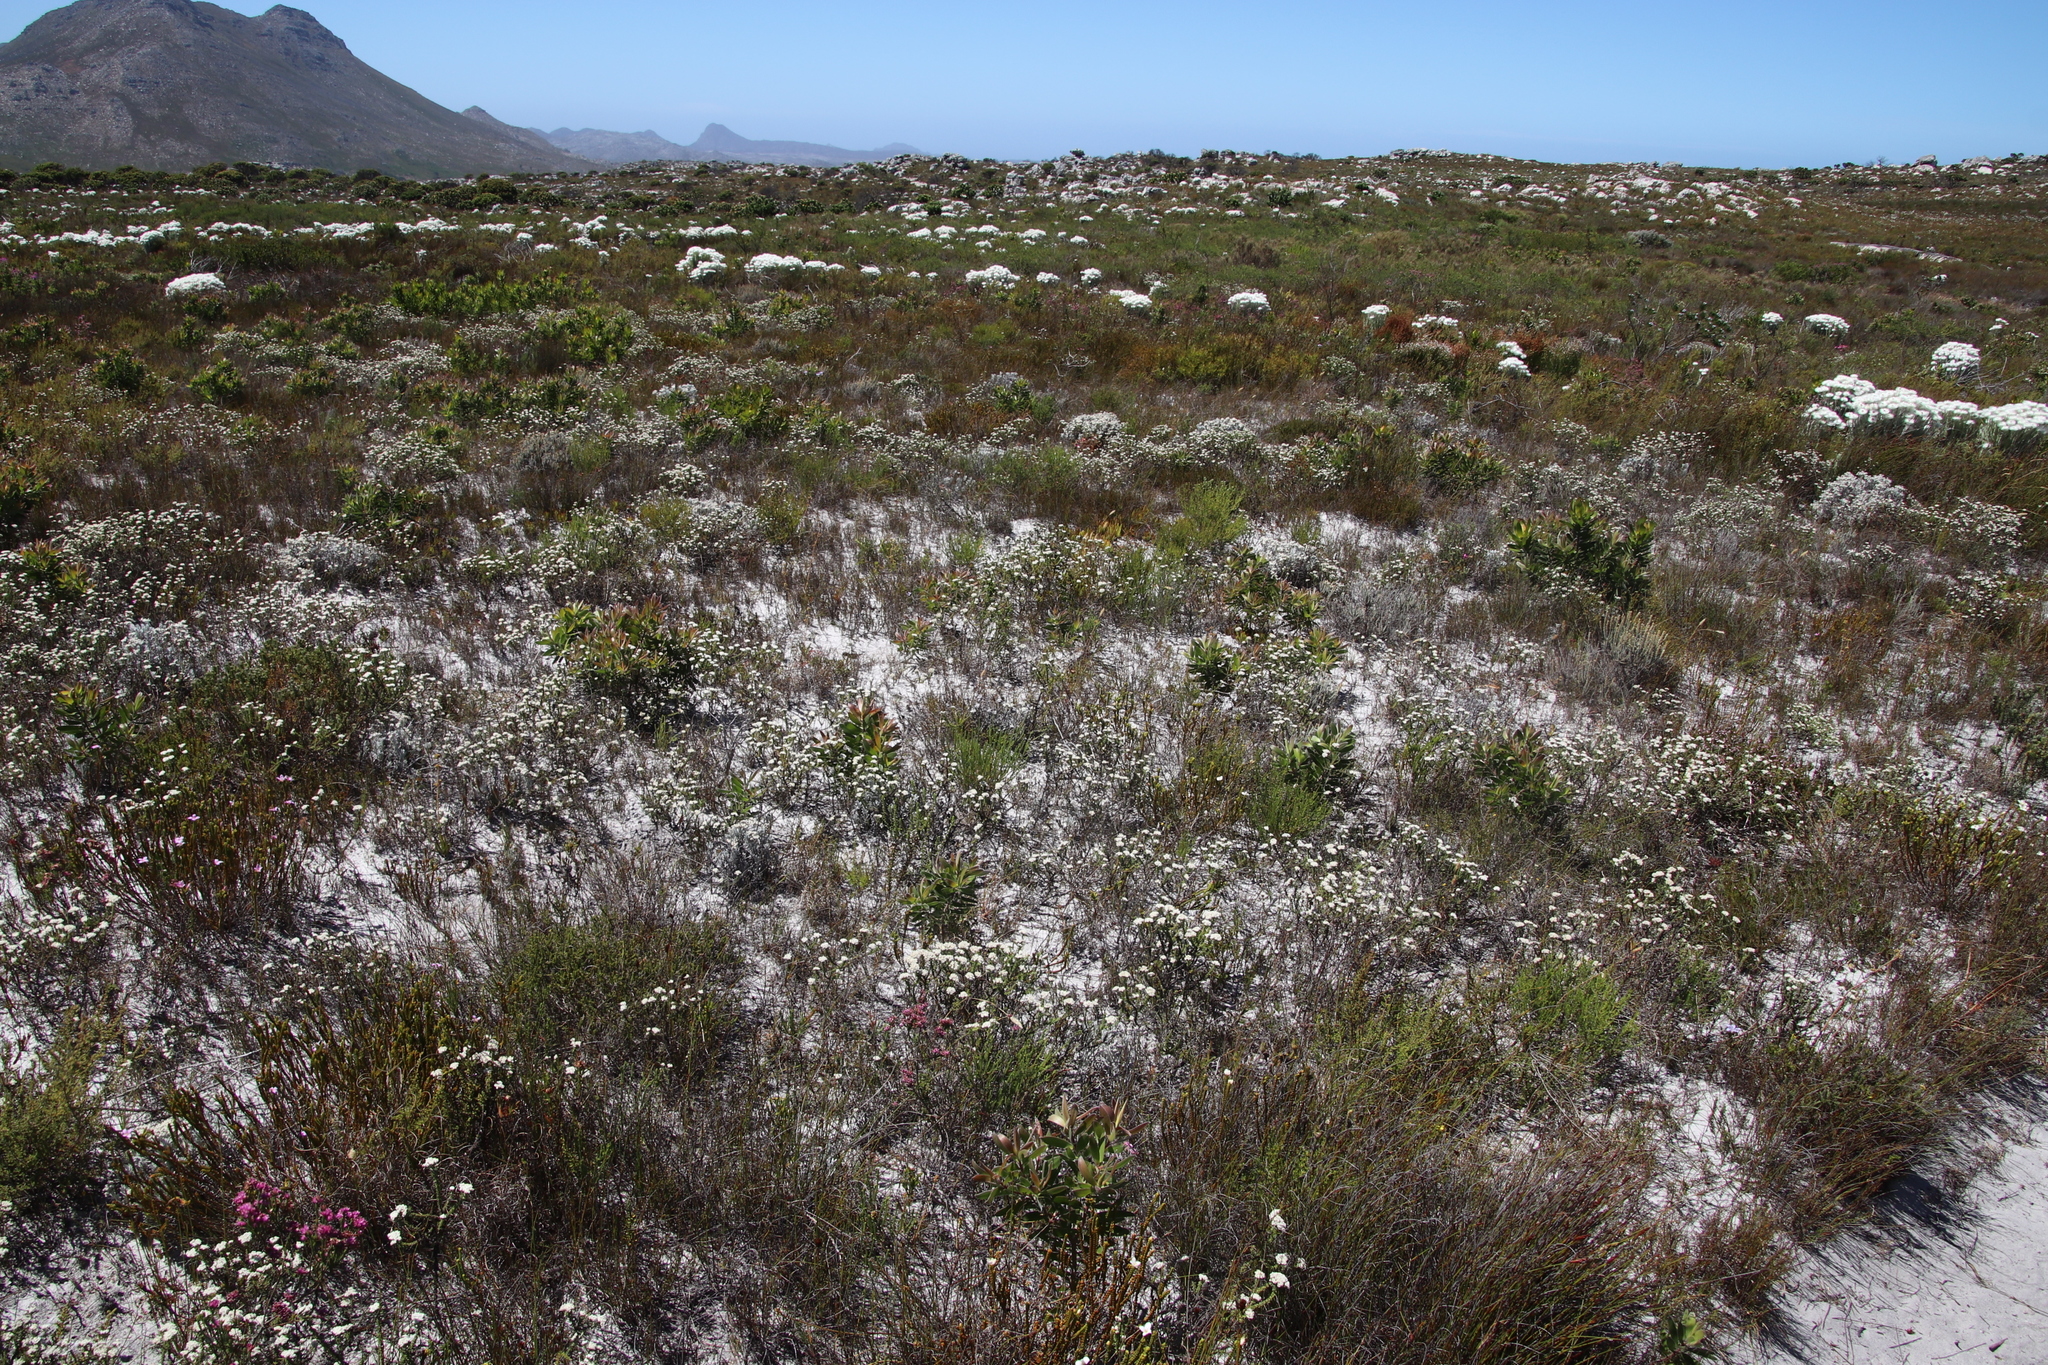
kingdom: Plantae
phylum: Tracheophyta
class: Magnoliopsida
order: Asterales
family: Asteraceae
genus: Metalasia
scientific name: Metalasia brevifolia
